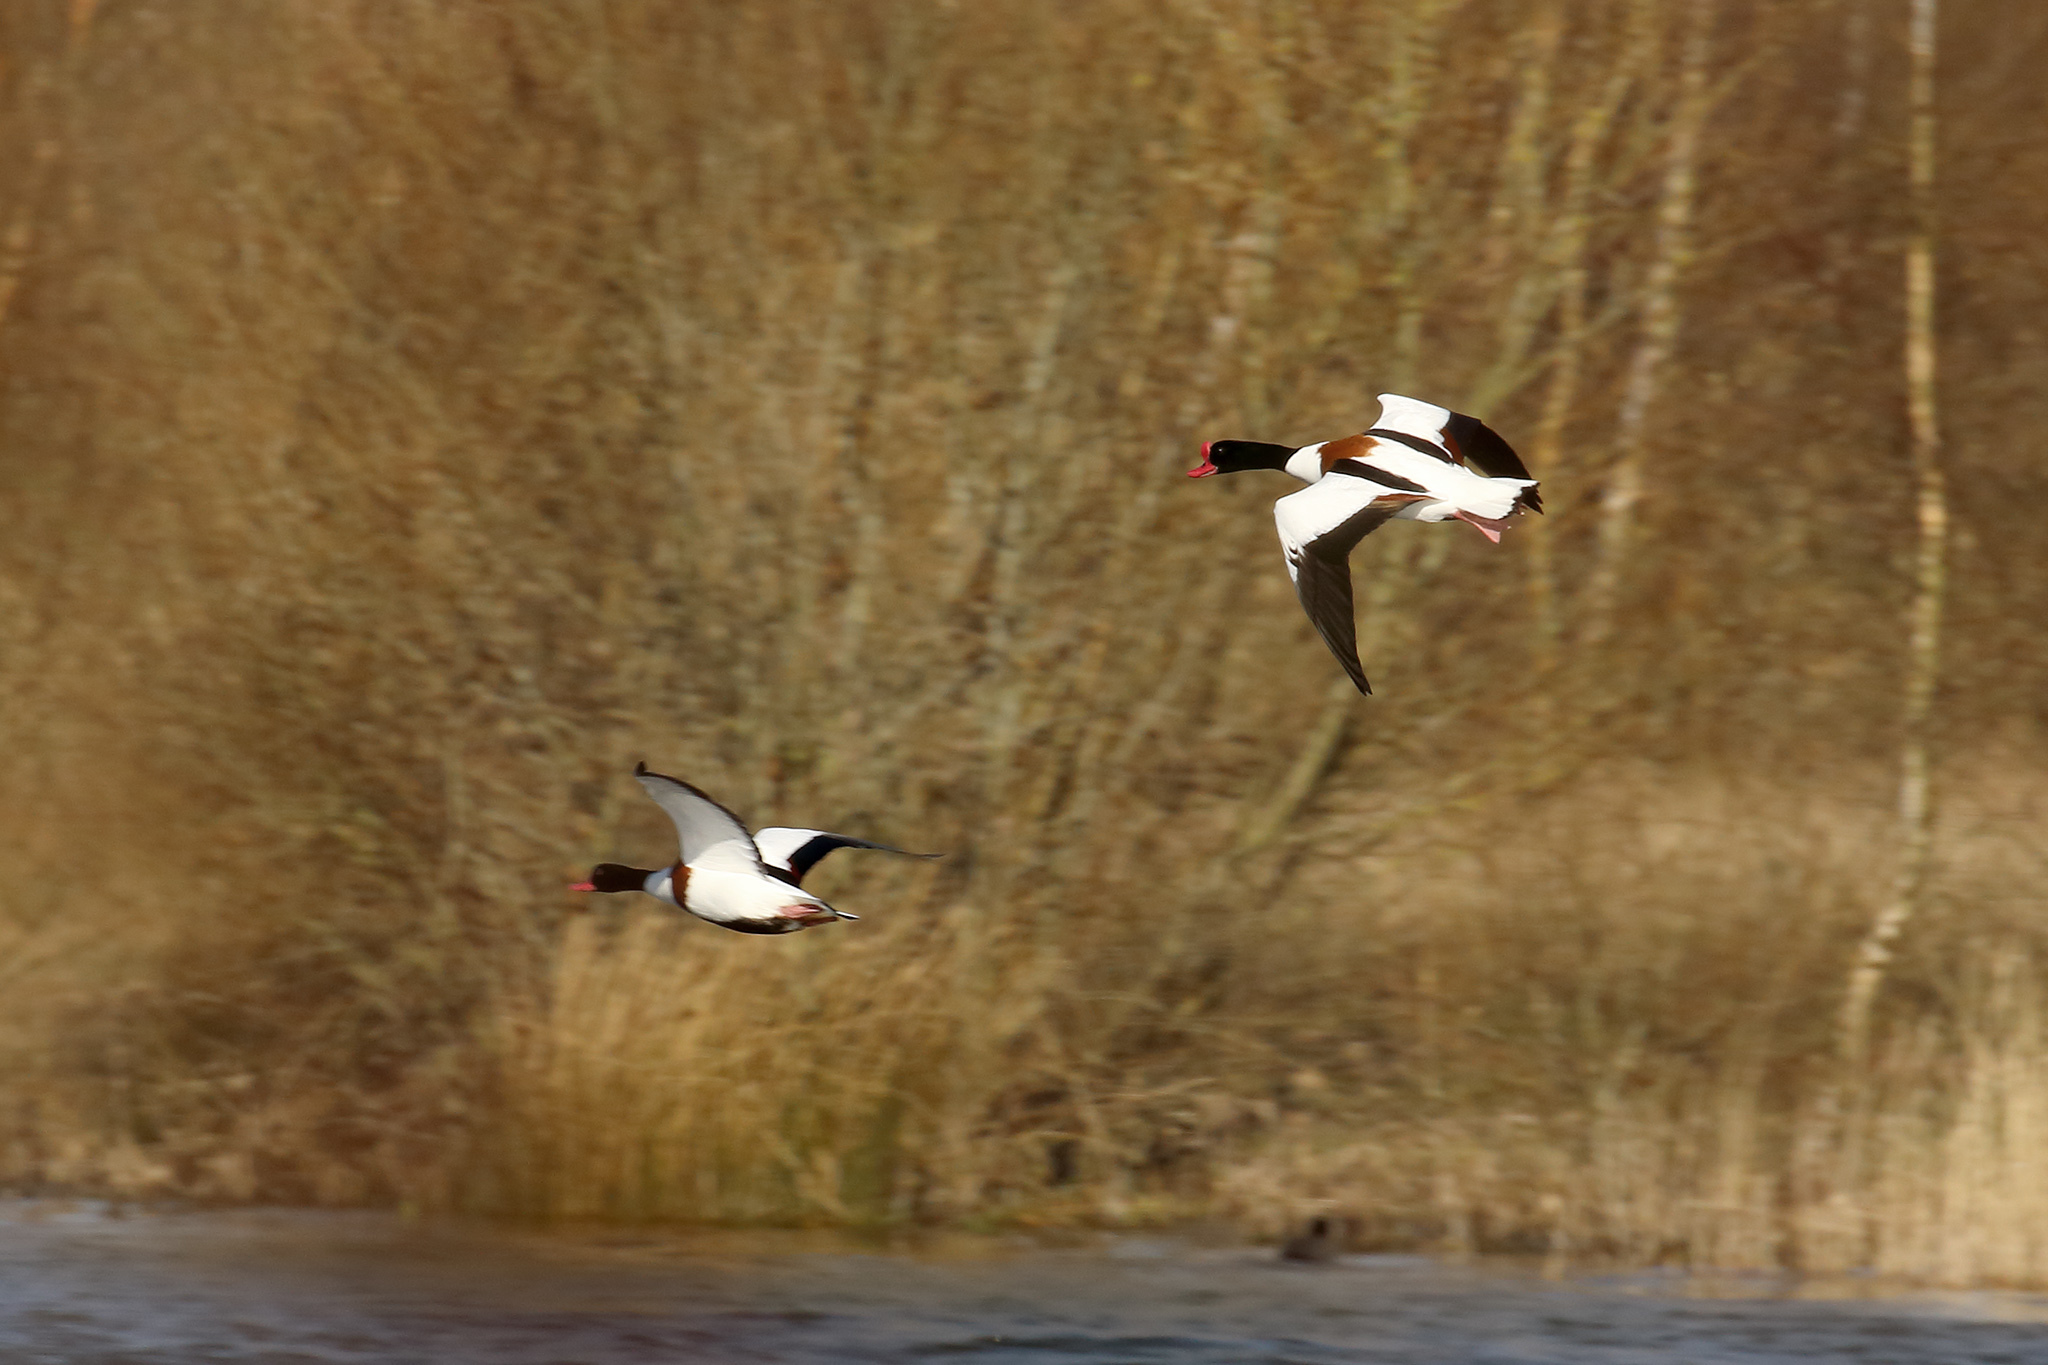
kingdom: Animalia
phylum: Chordata
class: Aves
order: Anseriformes
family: Anatidae
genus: Tadorna
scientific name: Tadorna tadorna
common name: Common shelduck
